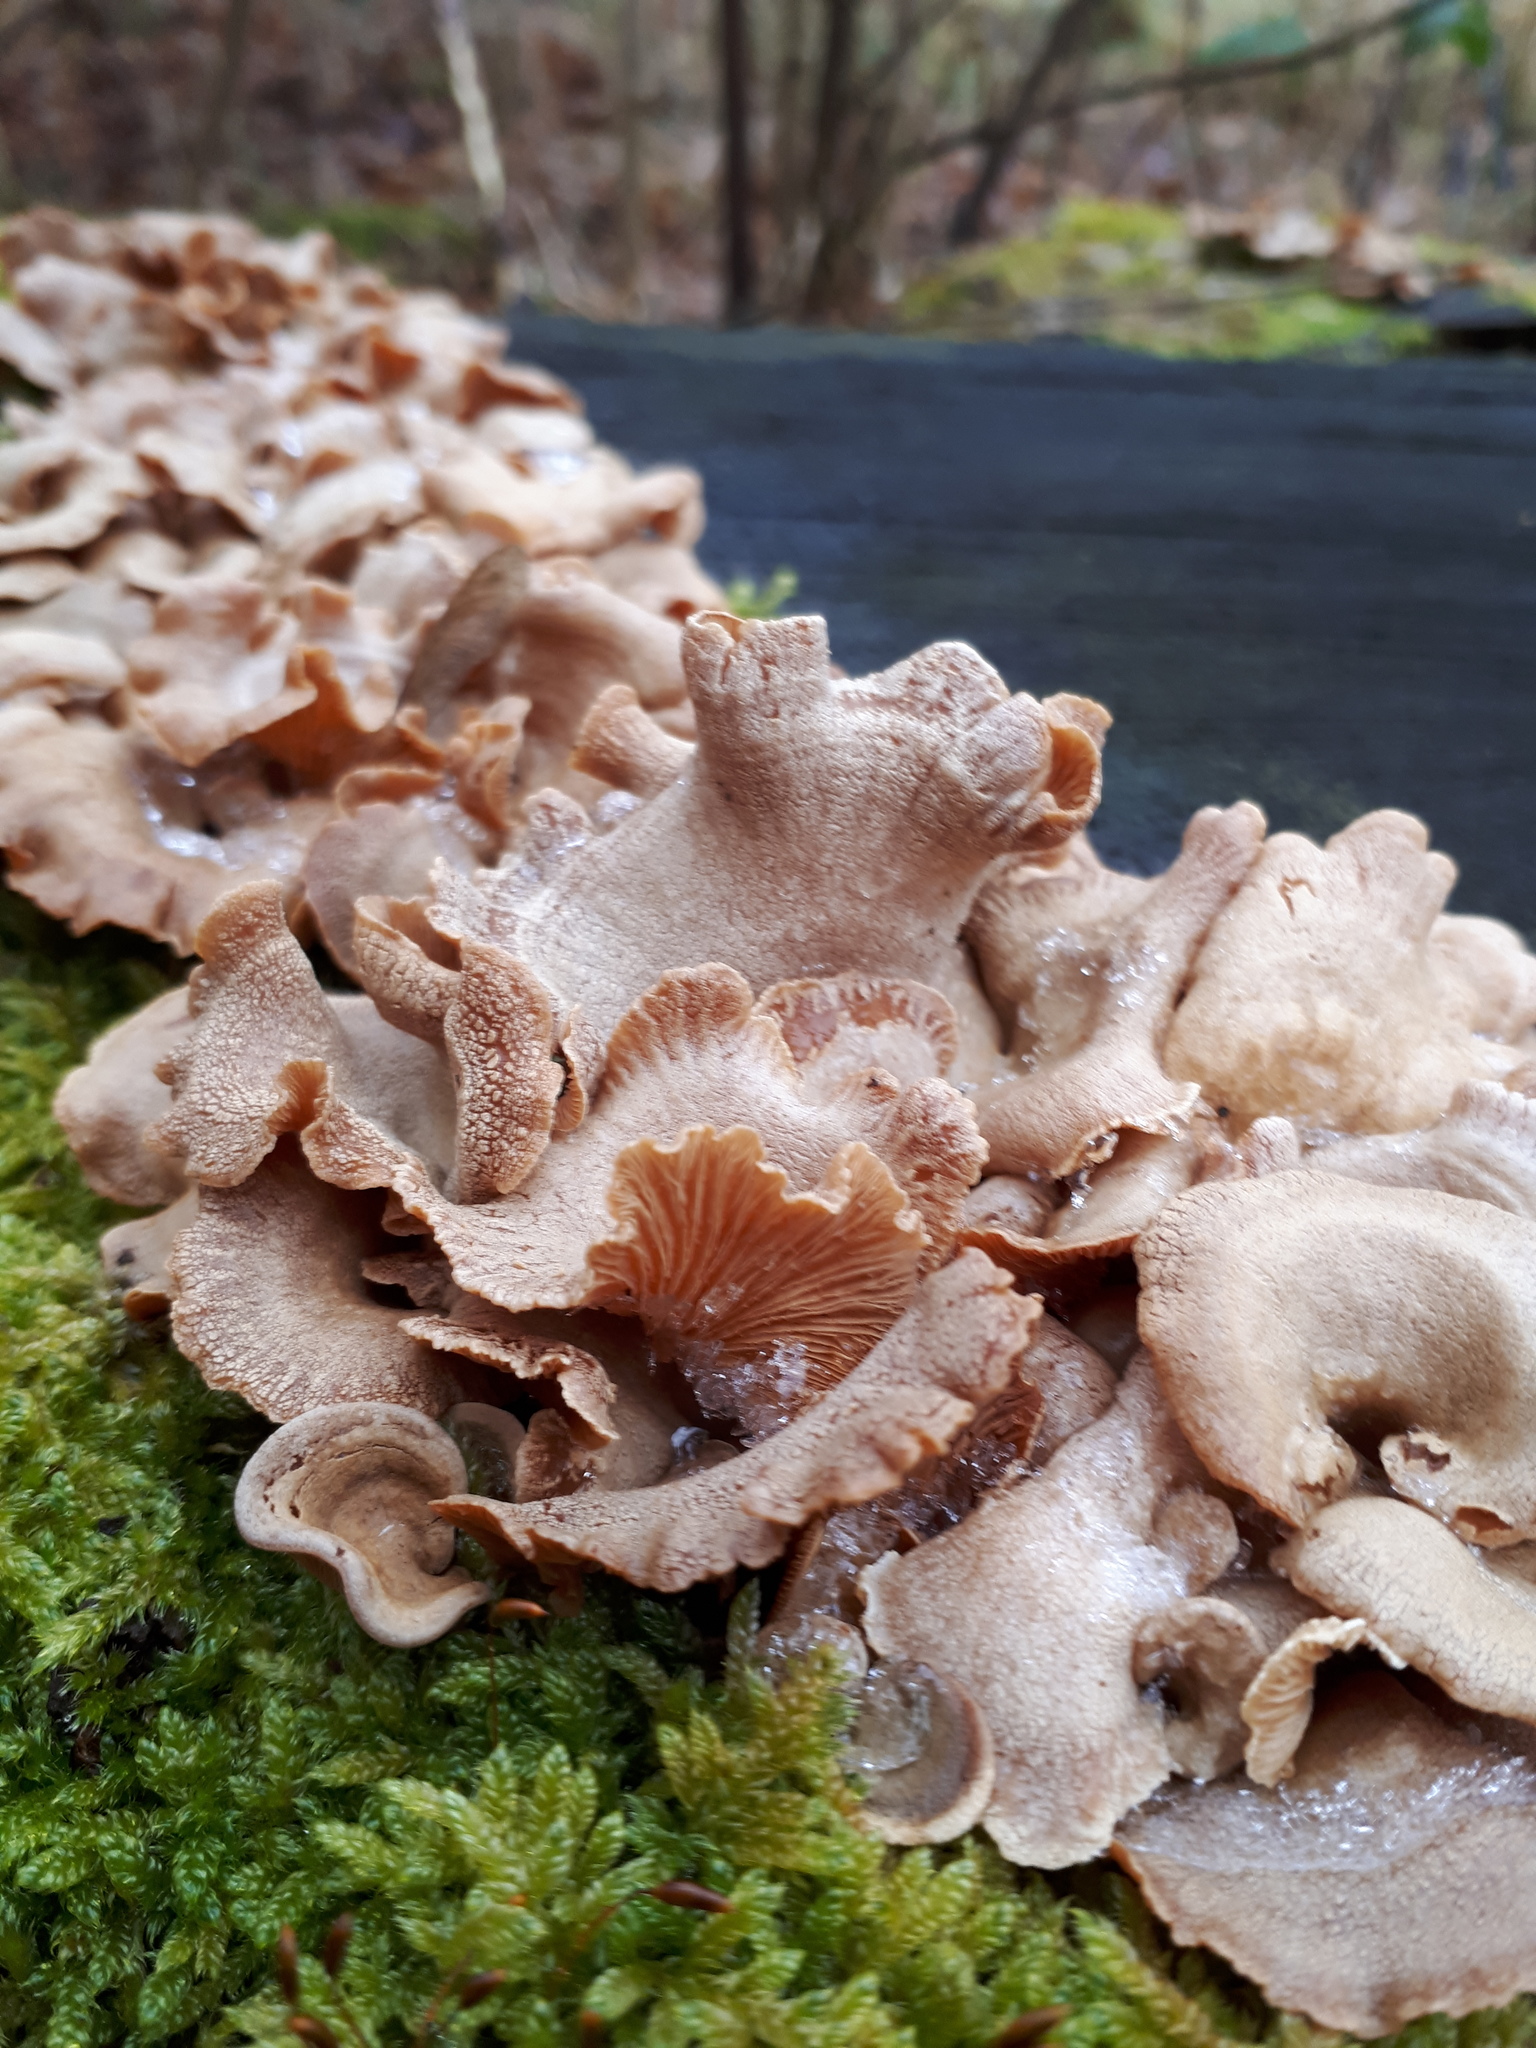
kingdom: Fungi
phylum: Basidiomycota
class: Agaricomycetes
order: Agaricales
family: Mycenaceae
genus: Panellus
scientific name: Panellus stipticus
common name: Bitter oysterling
